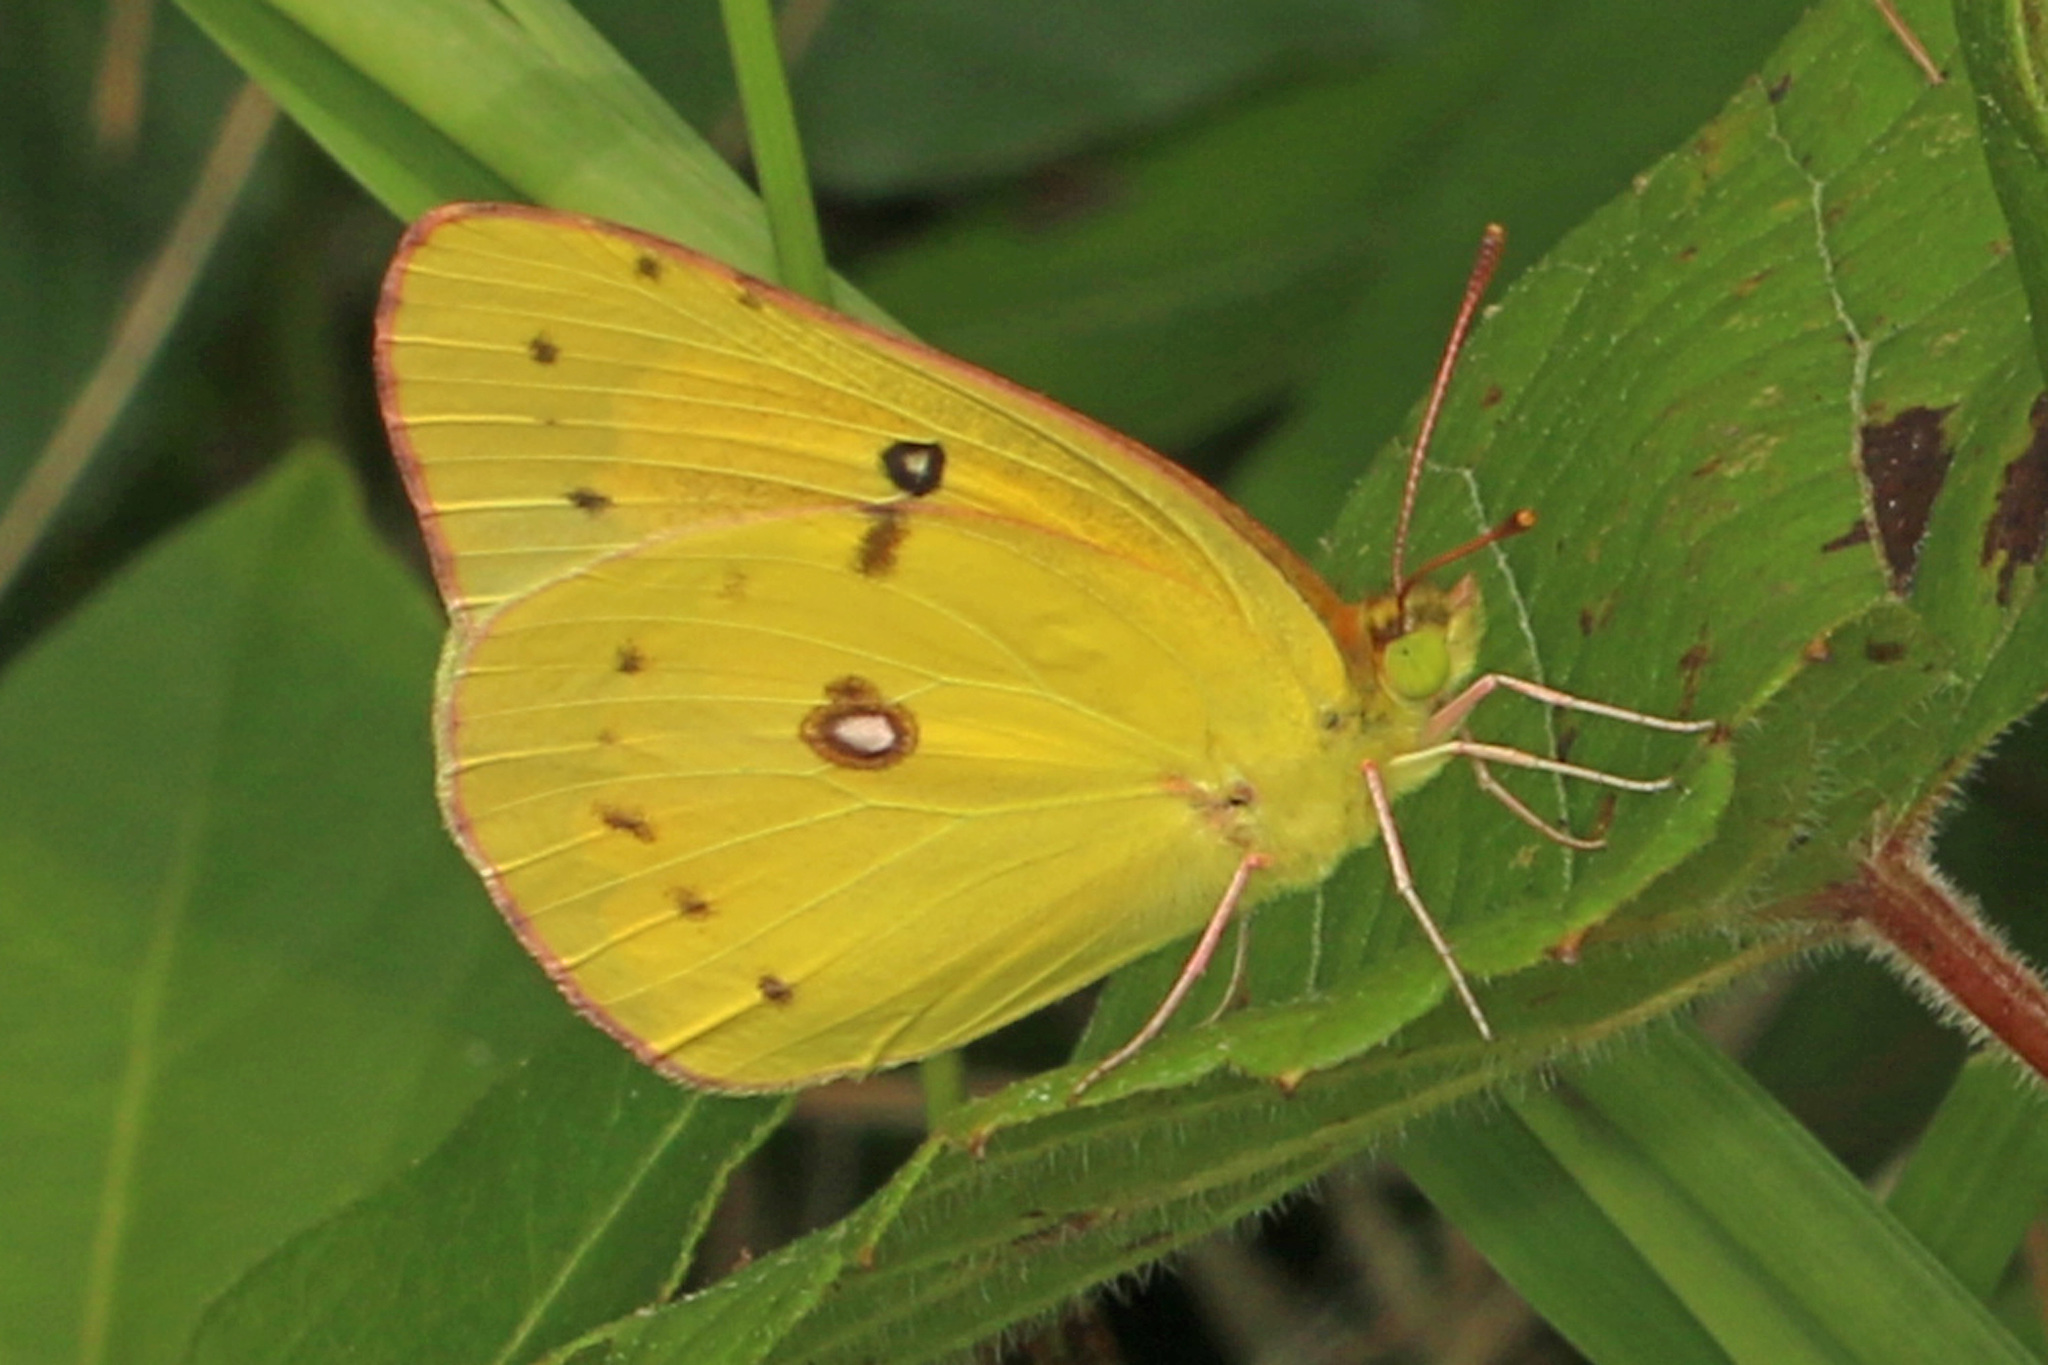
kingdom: Animalia
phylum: Arthropoda
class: Insecta
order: Lepidoptera
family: Pieridae
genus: Colias
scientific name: Colias eurytheme
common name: Alfalfa butterfly
